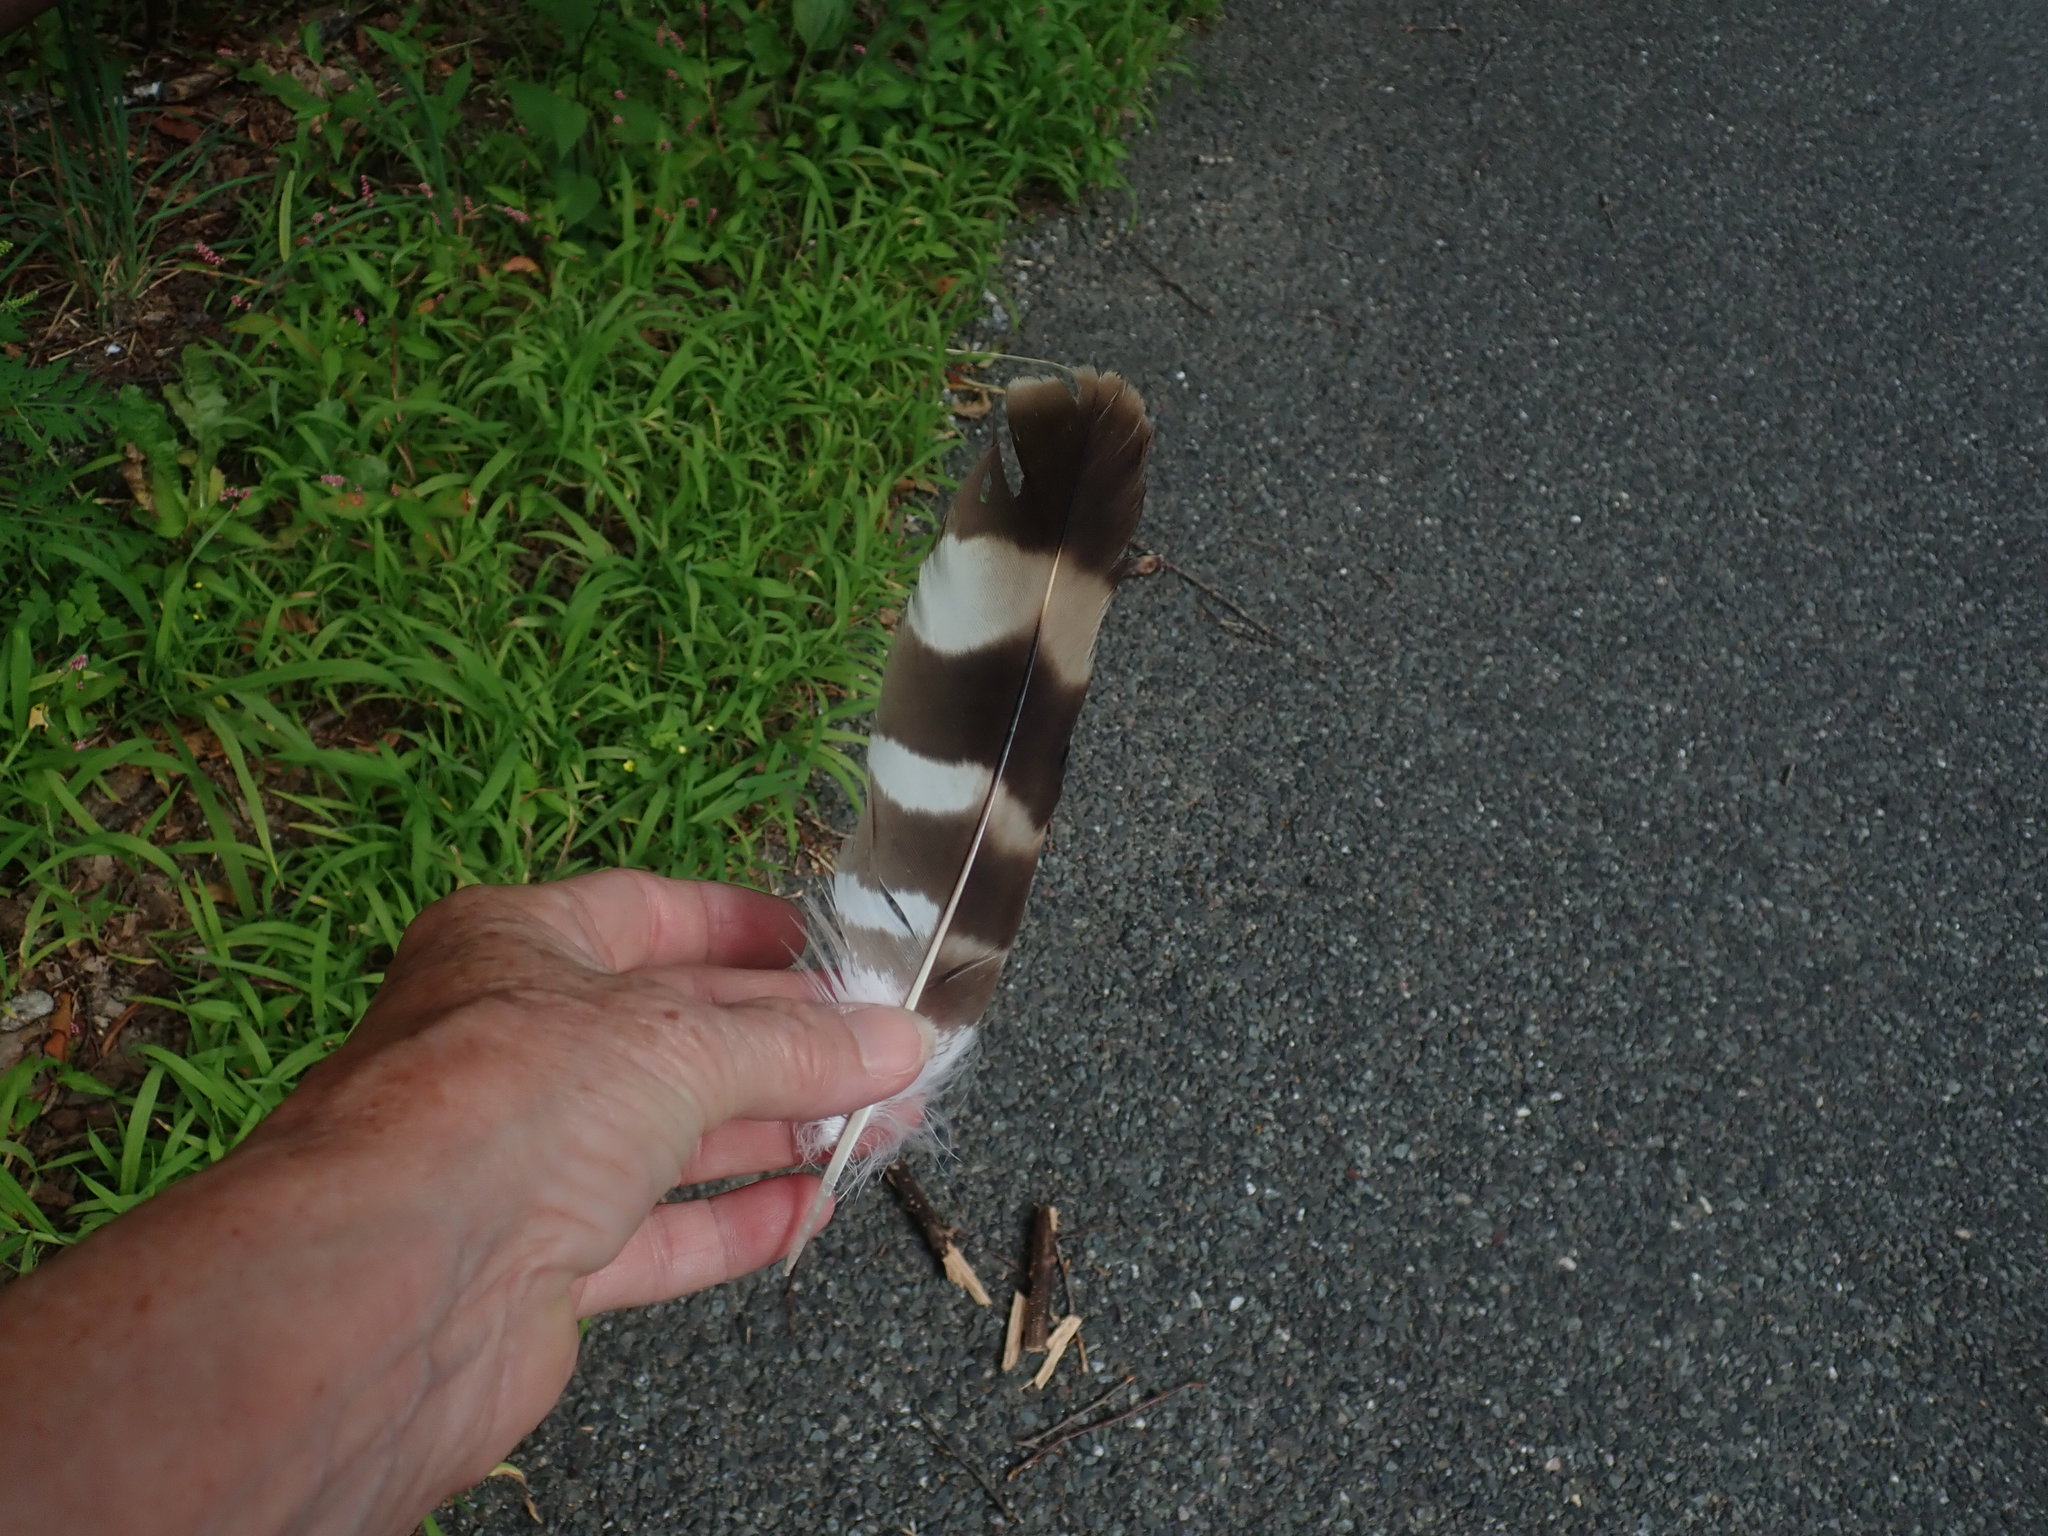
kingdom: Animalia
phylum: Chordata
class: Aves
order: Accipitriformes
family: Accipitridae
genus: Buteo
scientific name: Buteo platypterus
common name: Broad-winged hawk
